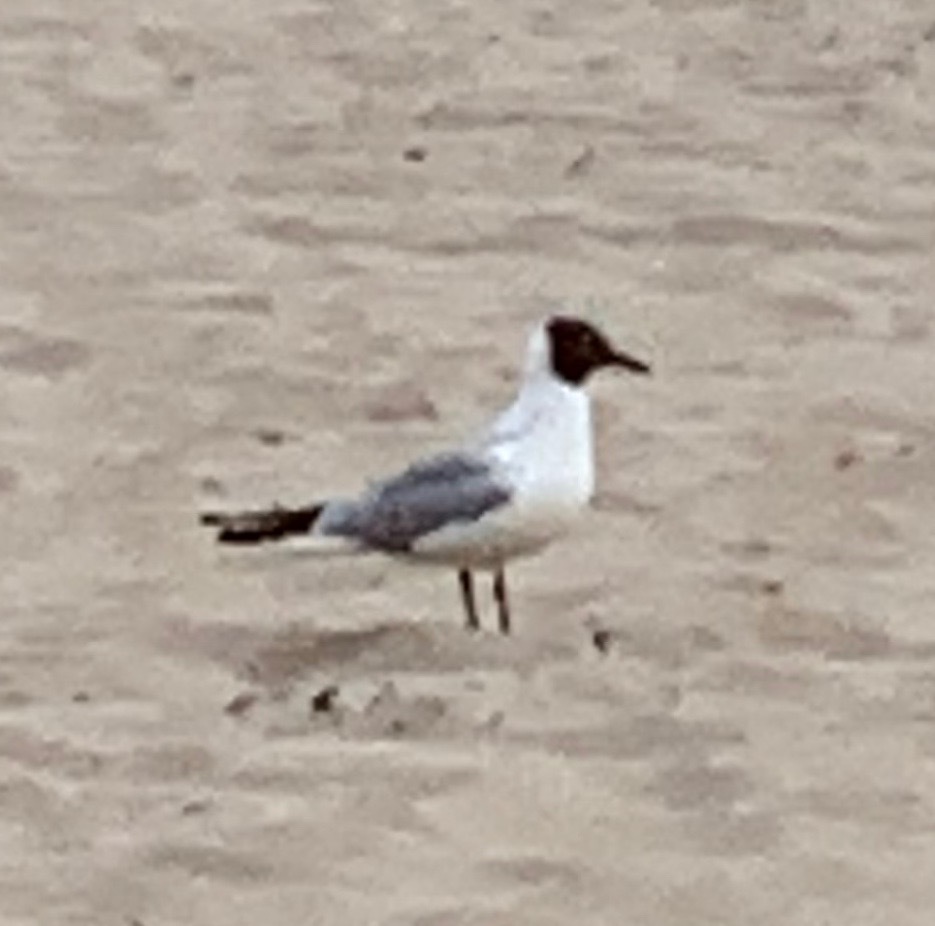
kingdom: Animalia
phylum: Chordata
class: Aves
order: Charadriiformes
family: Laridae
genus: Chroicocephalus
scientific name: Chroicocephalus ridibundus
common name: Black-headed gull
